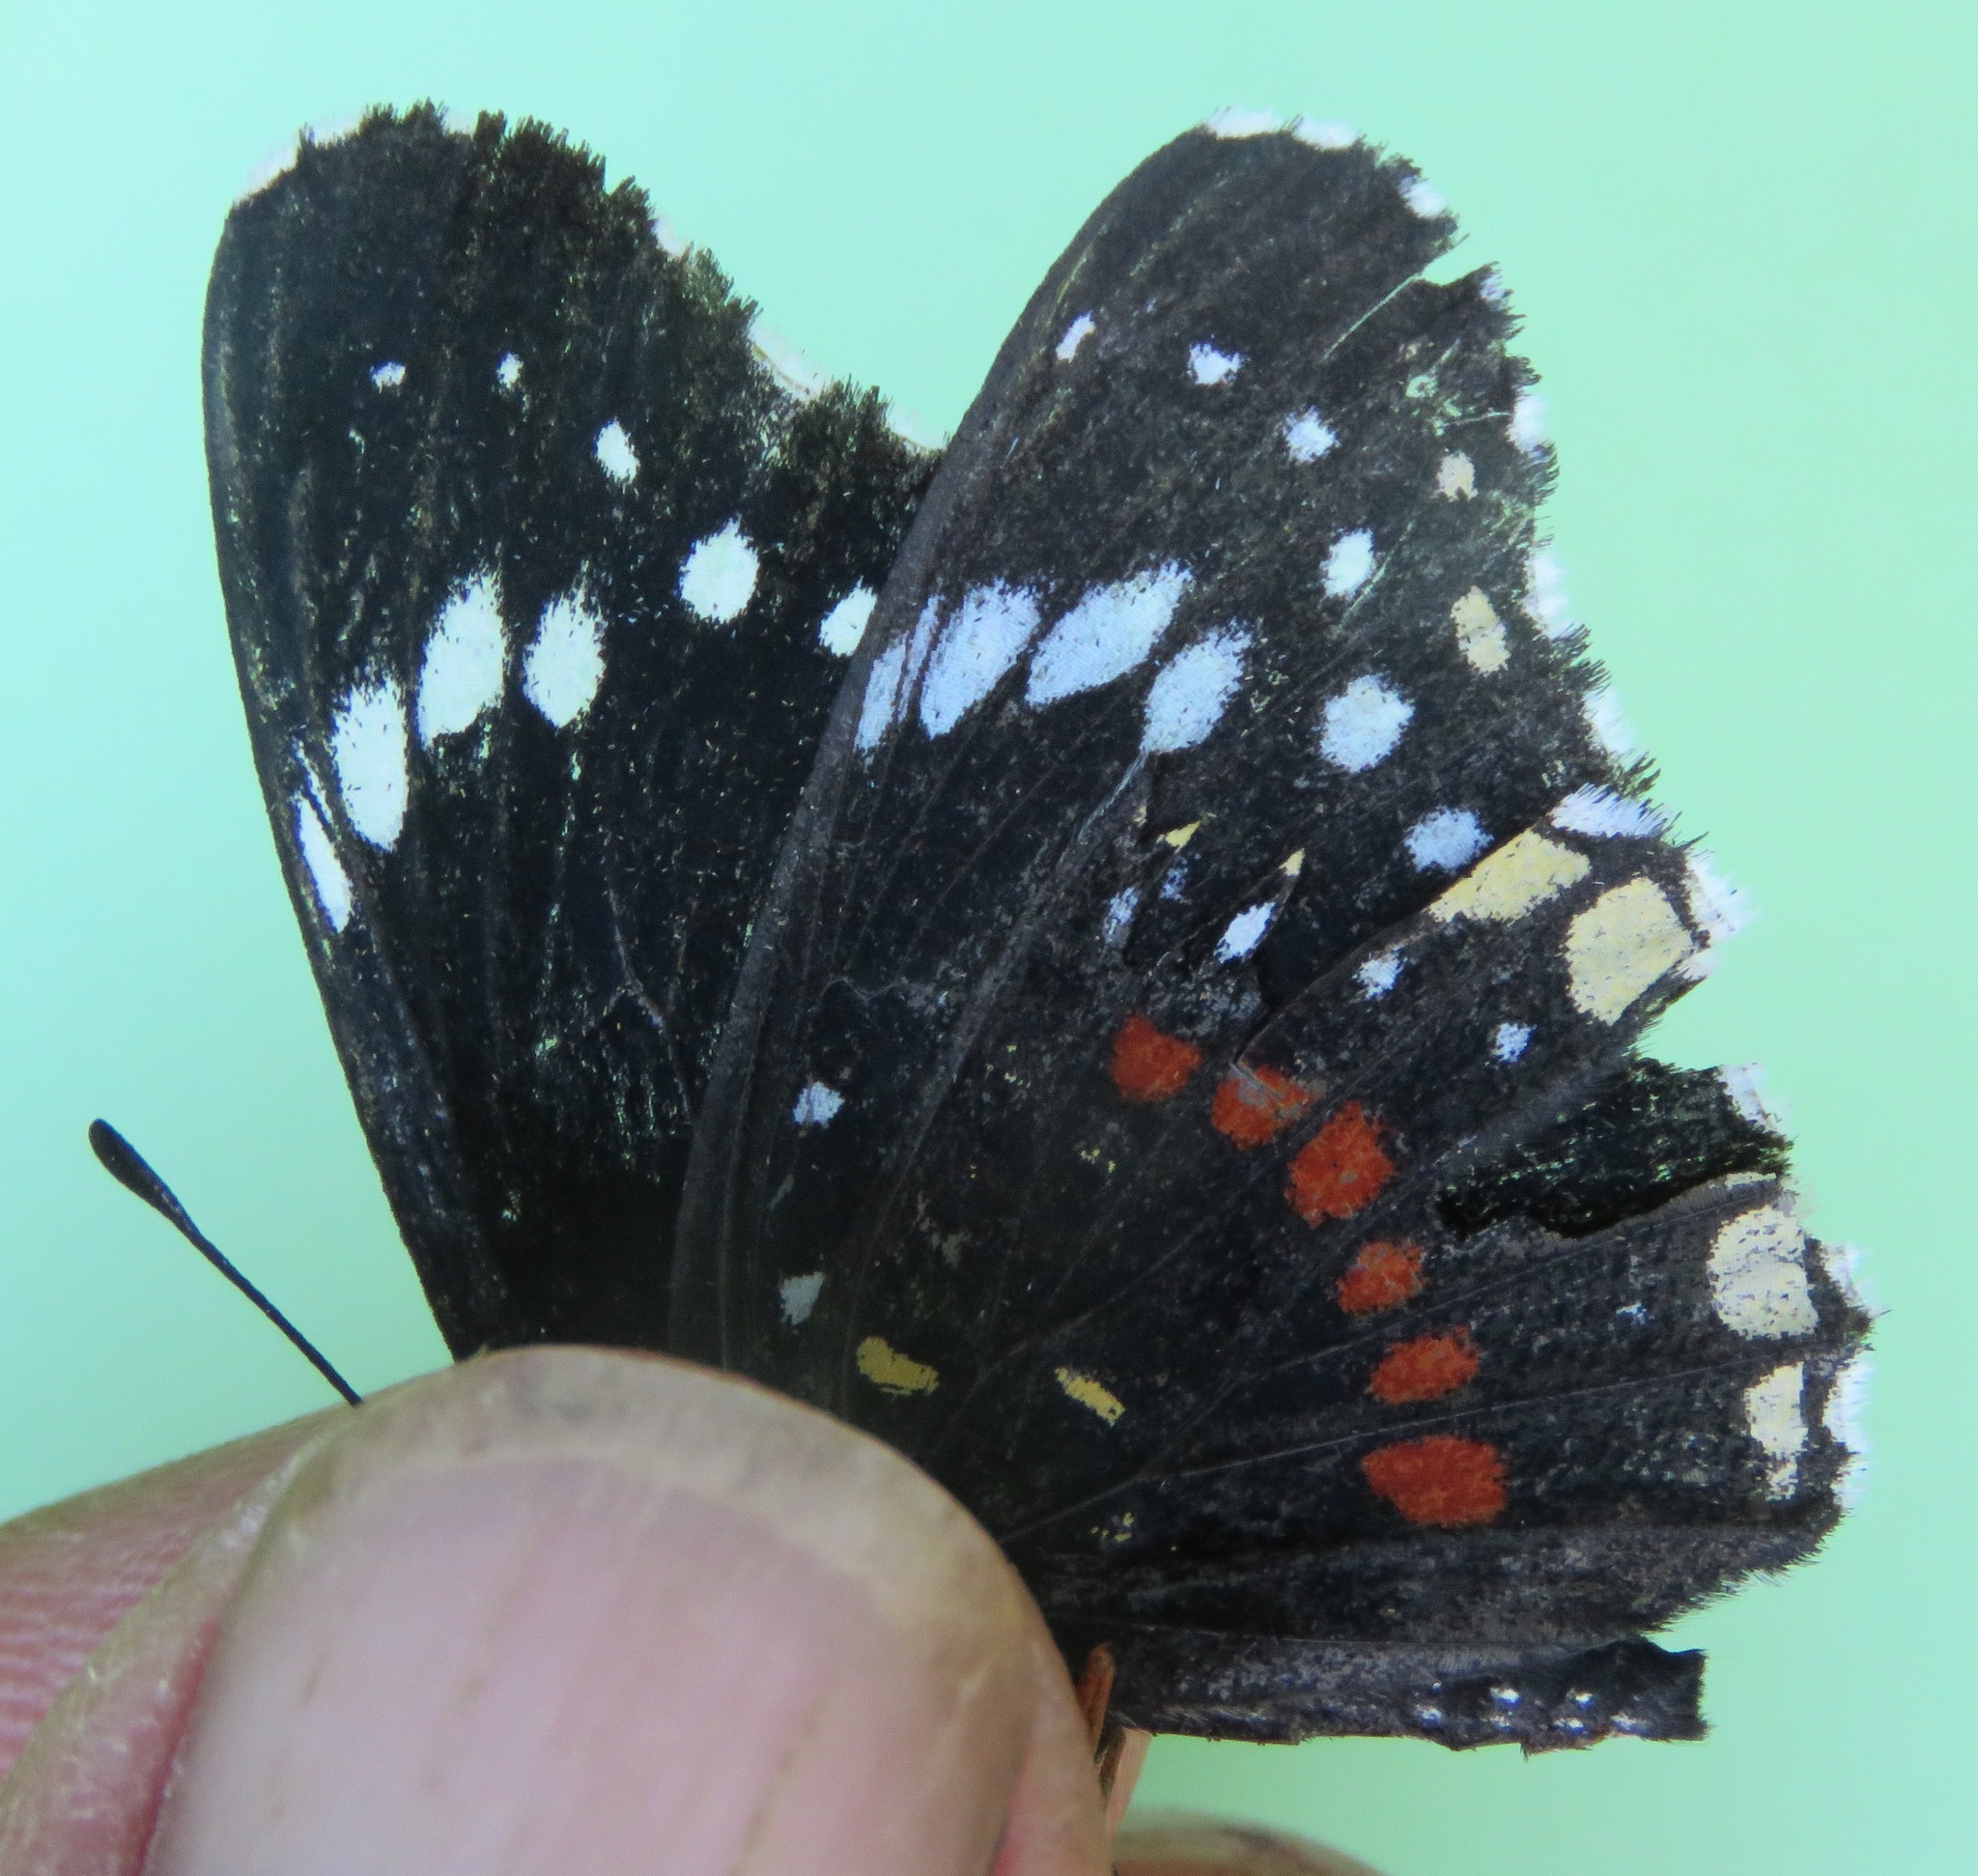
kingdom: Animalia
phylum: Arthropoda
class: Insecta
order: Lepidoptera
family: Nymphalidae
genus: Chlosyne
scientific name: Chlosyne hippodrome
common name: Simple patch
